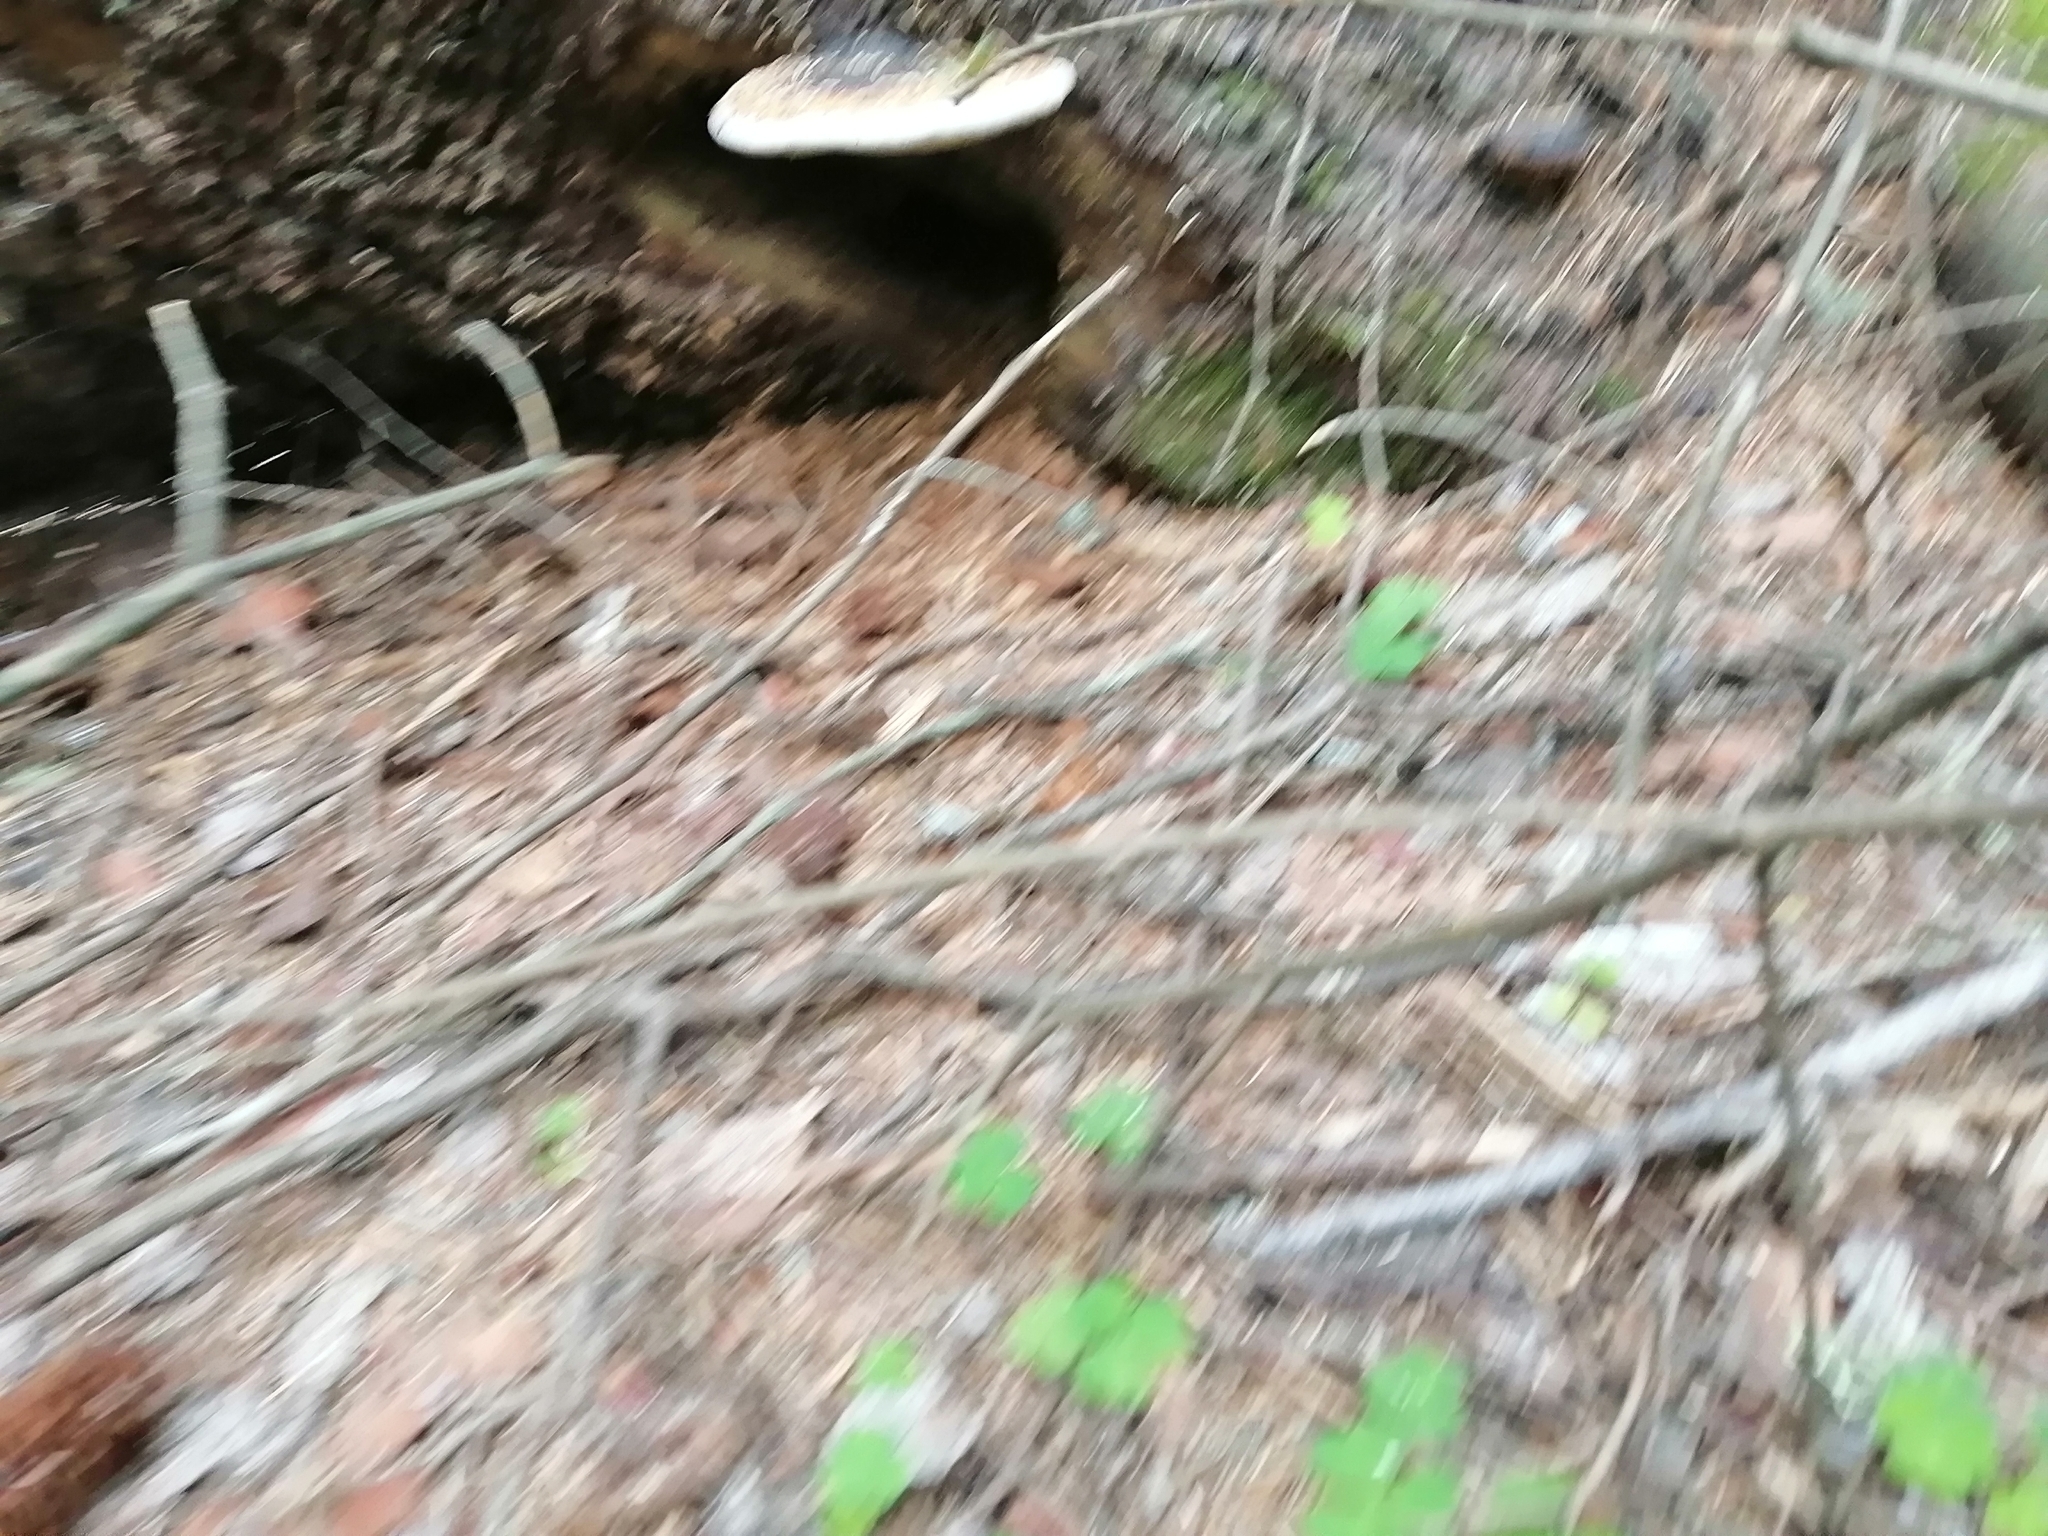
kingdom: Fungi
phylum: Basidiomycota
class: Agaricomycetes
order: Polyporales
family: Fomitopsidaceae
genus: Fomitopsis
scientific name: Fomitopsis pinicola
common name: Red-belted bracket
